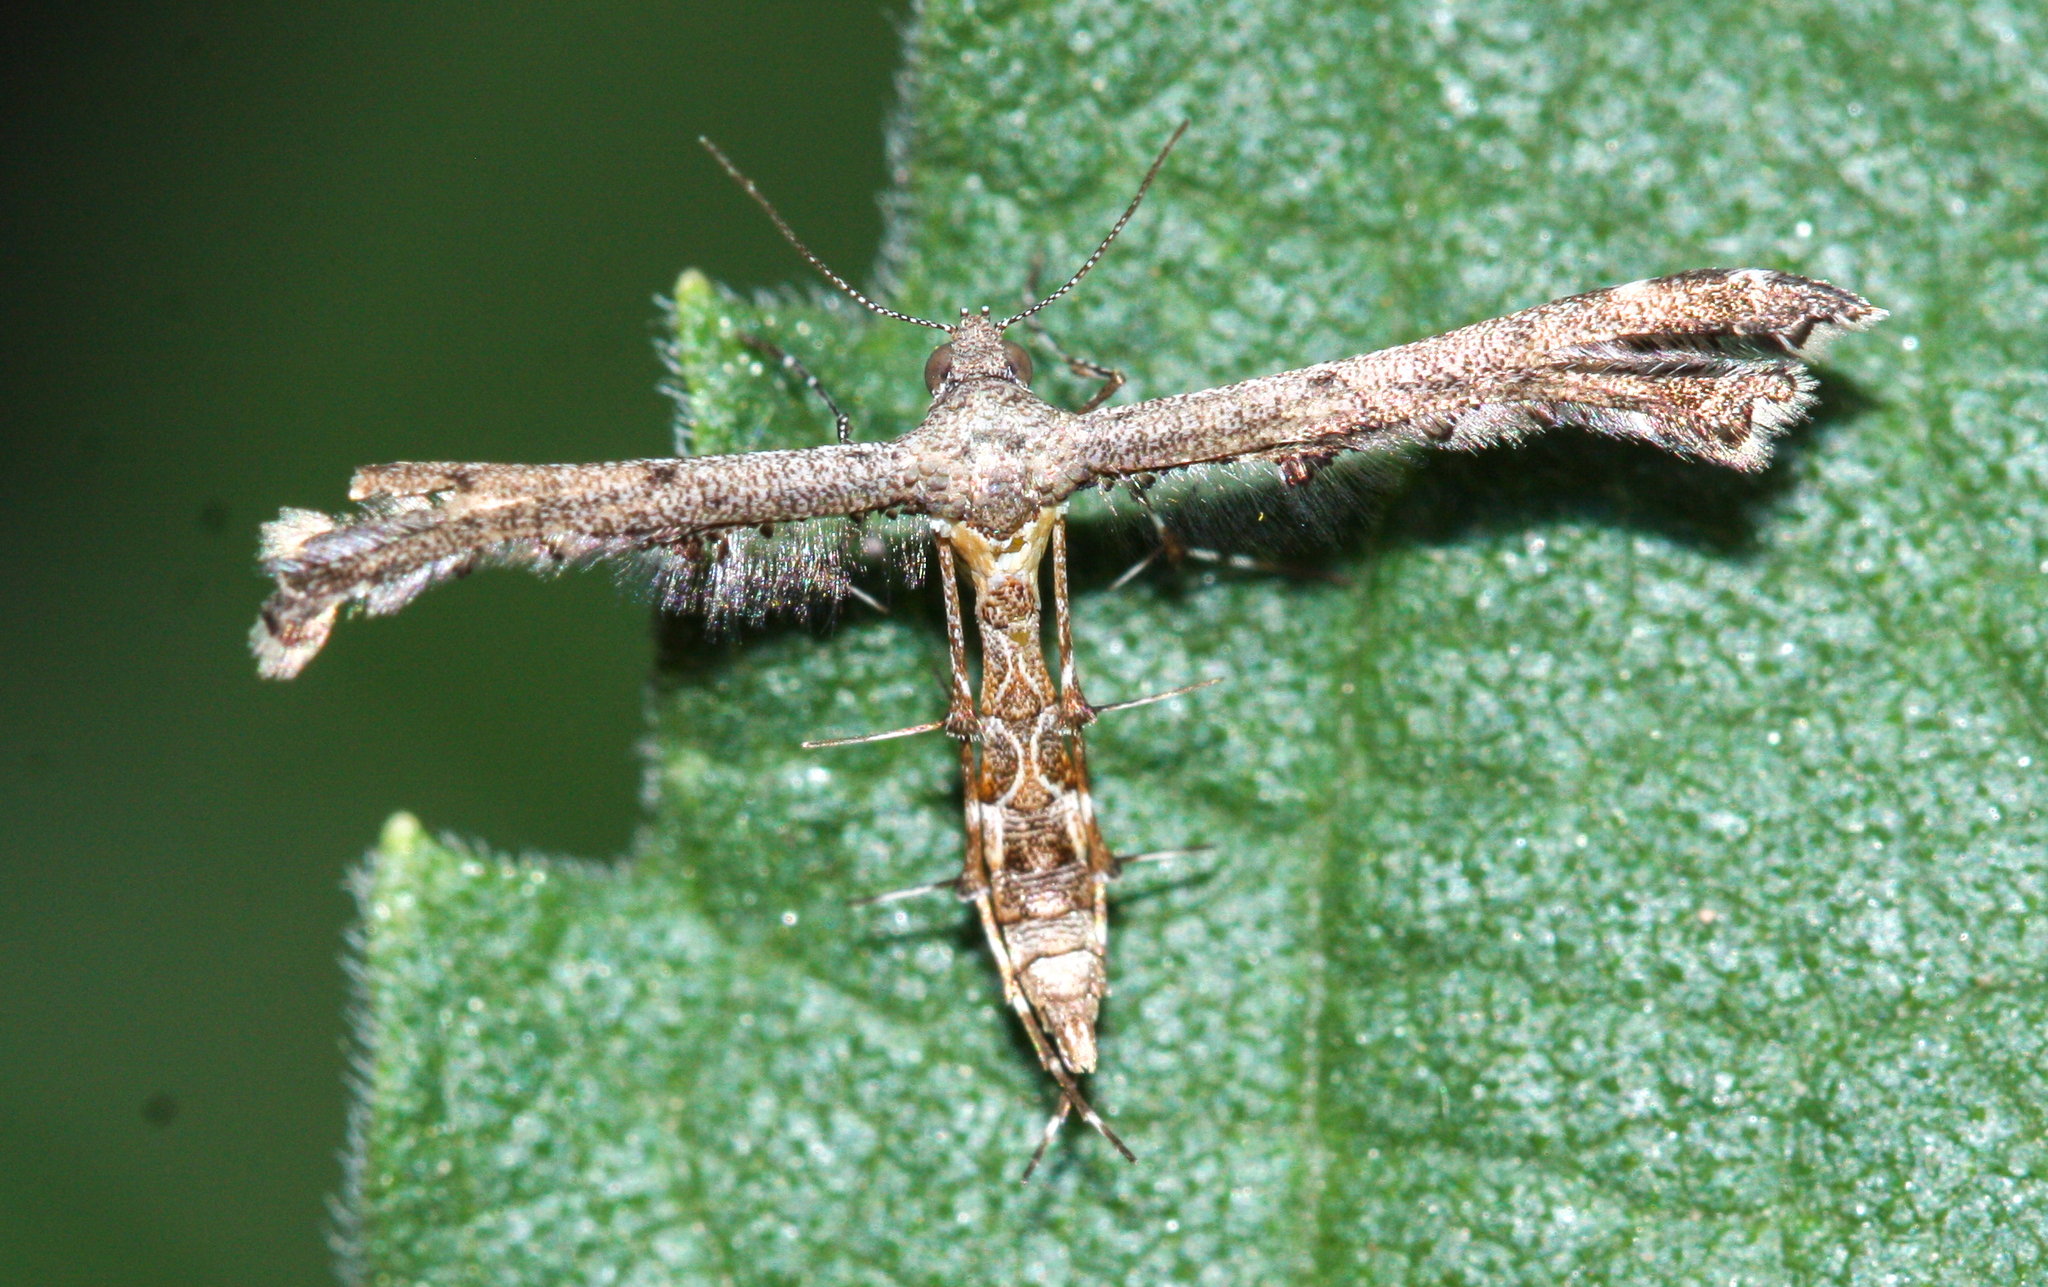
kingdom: Animalia
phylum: Arthropoda
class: Insecta
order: Lepidoptera
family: Pterophoridae
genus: Michaelophorus
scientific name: Michaelophorus indentatus
